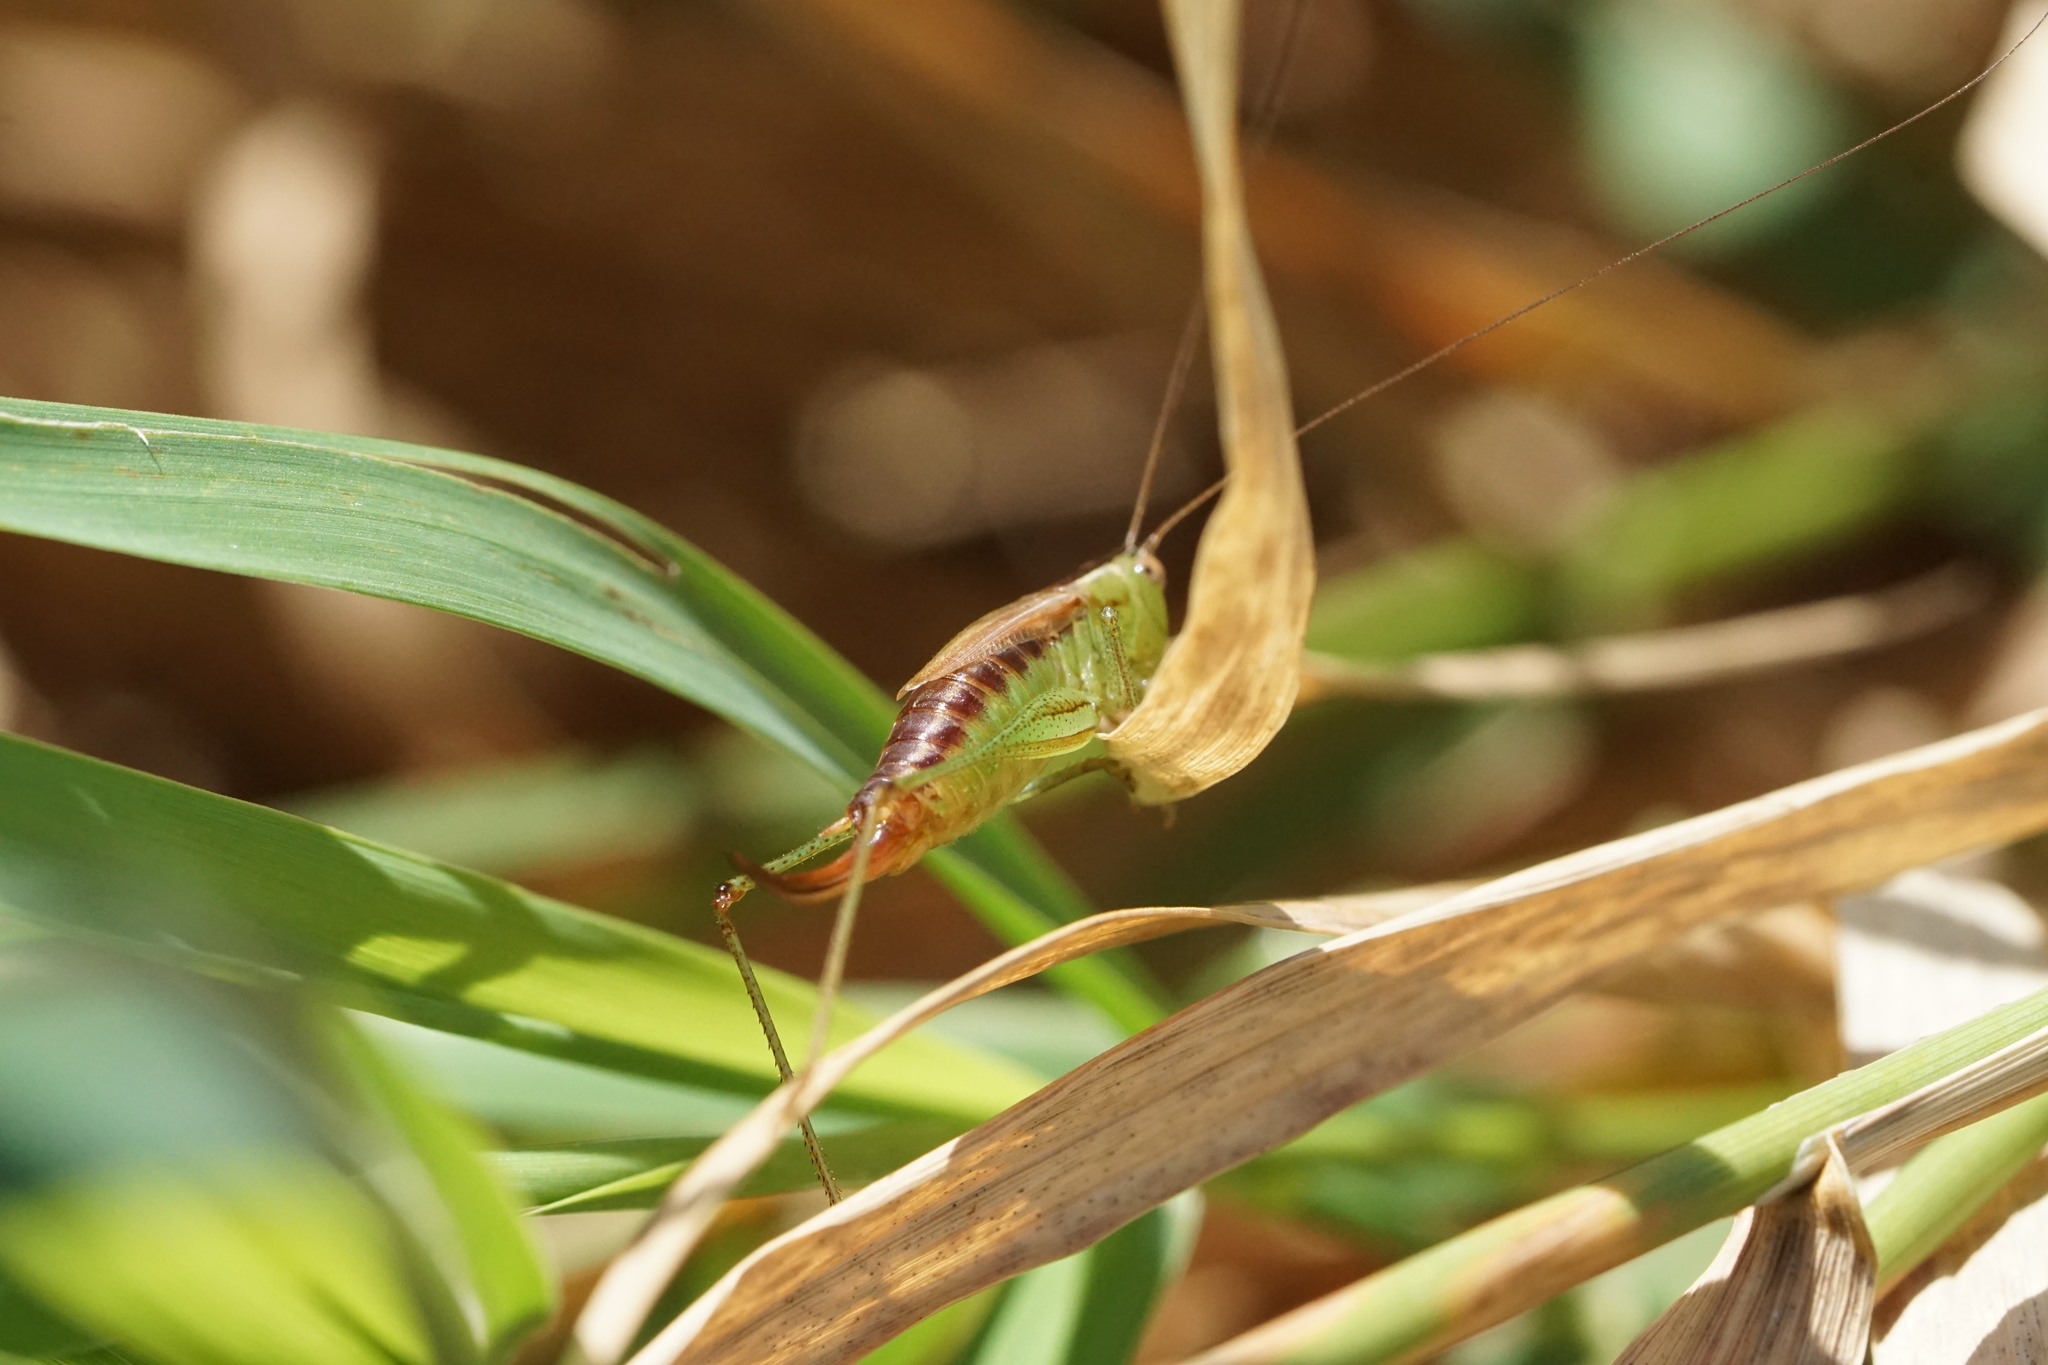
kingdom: Animalia
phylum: Arthropoda
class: Insecta
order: Orthoptera
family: Tettigoniidae
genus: Conocephalus
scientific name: Conocephalus brevipennis
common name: Short-winged meadow katydid
